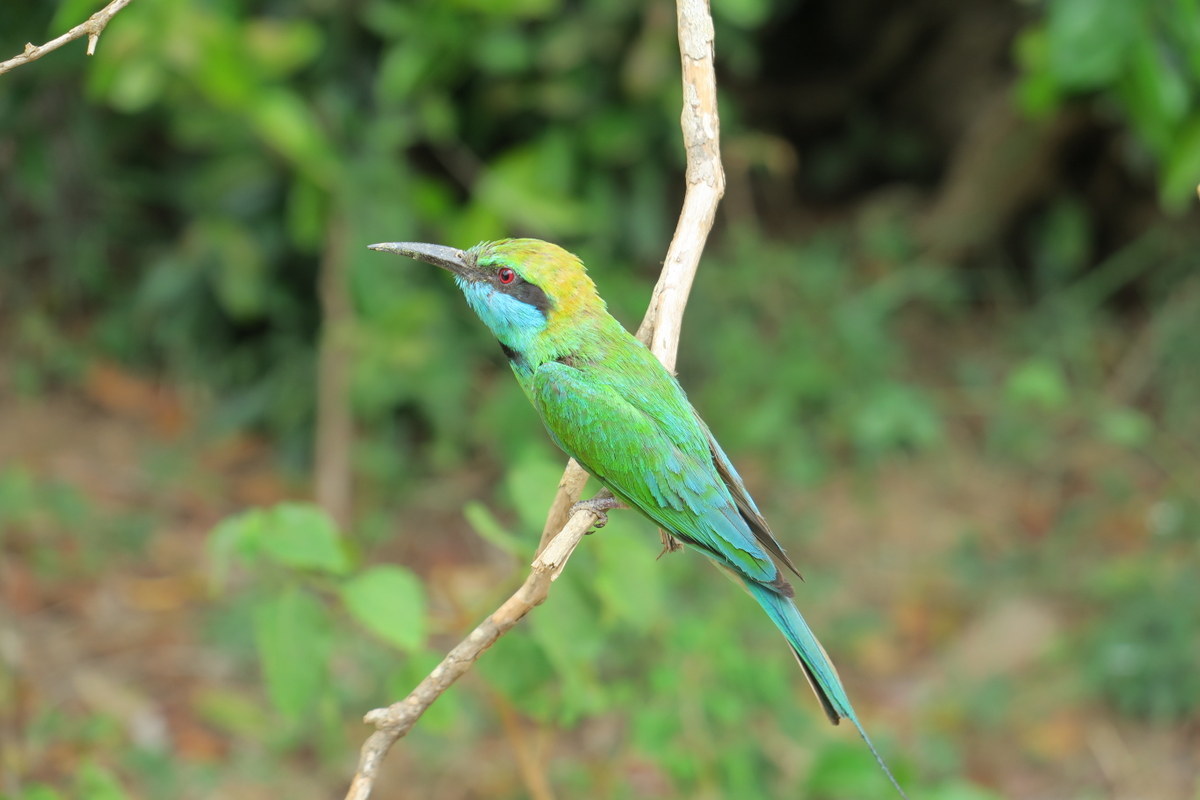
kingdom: Animalia
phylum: Chordata
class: Aves
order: Coraciiformes
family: Meropidae
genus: Merops
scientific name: Merops cyanophrys
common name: Arabian green bee-eater
